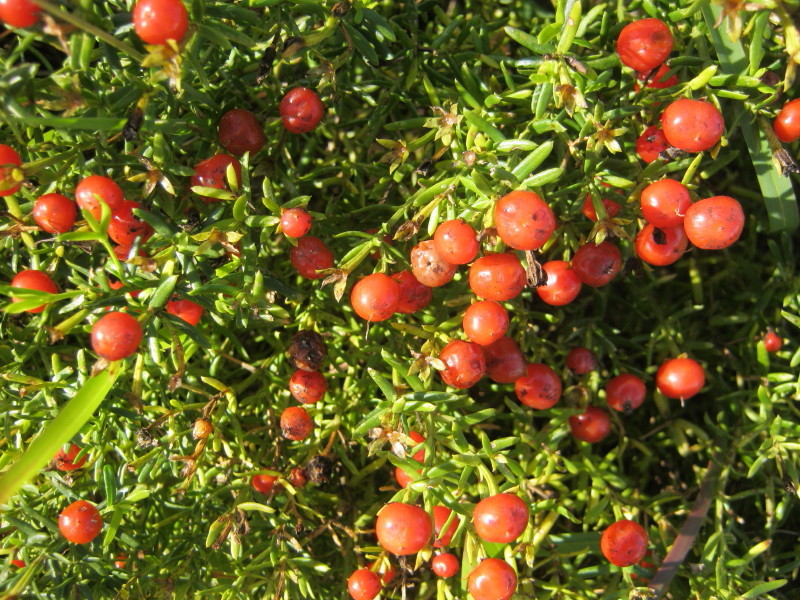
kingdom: Plantae
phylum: Tracheophyta
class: Magnoliopsida
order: Gentianales
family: Gentianaceae
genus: Chironia
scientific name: Chironia baccifera
